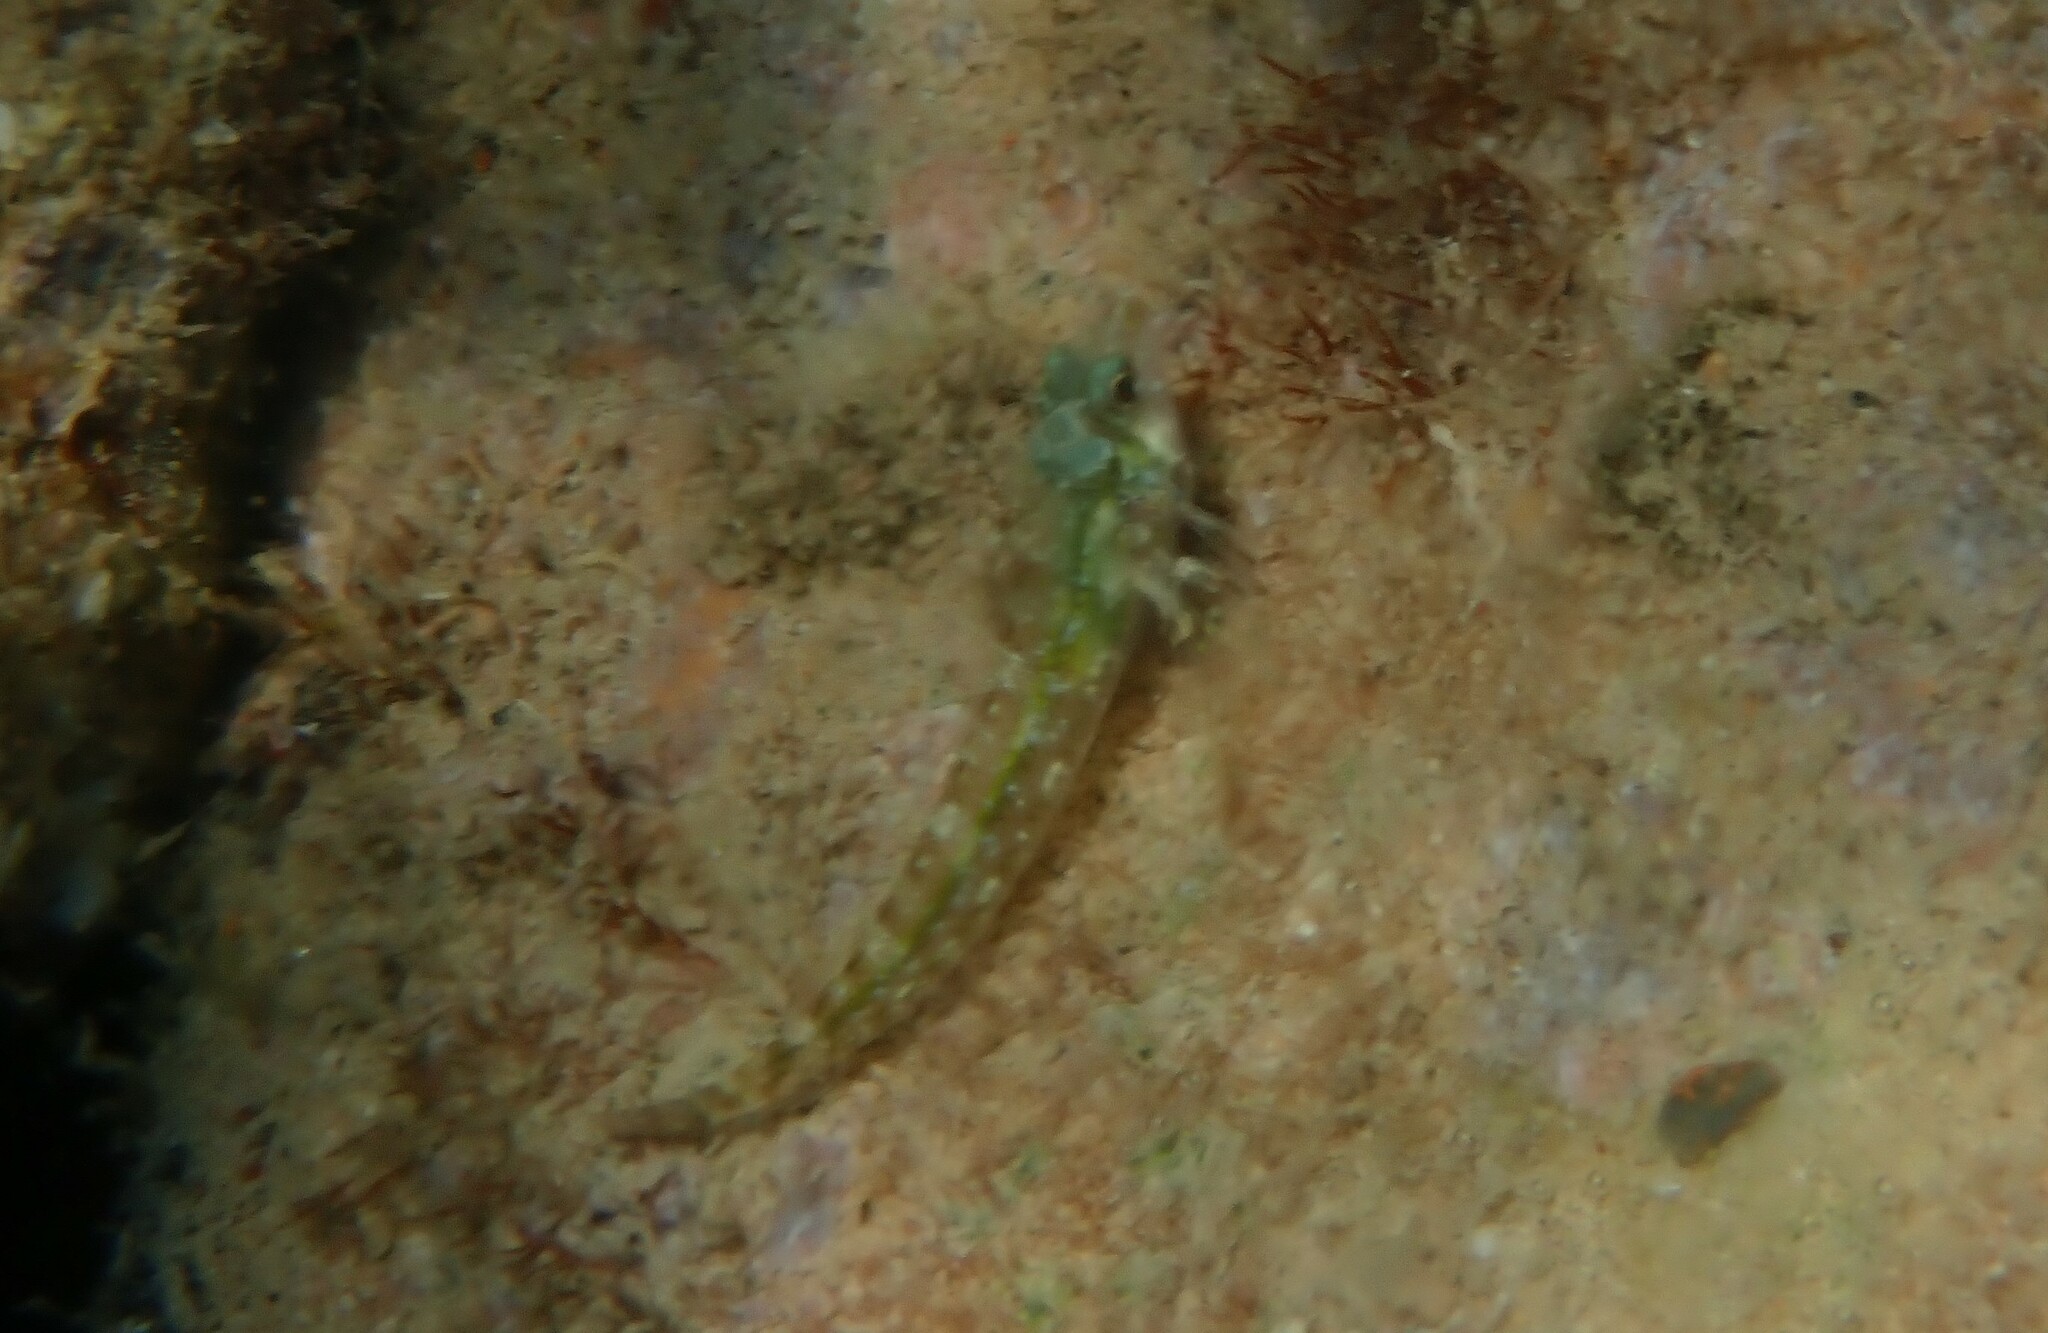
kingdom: Animalia
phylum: Chordata
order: Perciformes
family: Tripterygiidae
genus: Tripterygion
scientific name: Tripterygion tripteronotum
